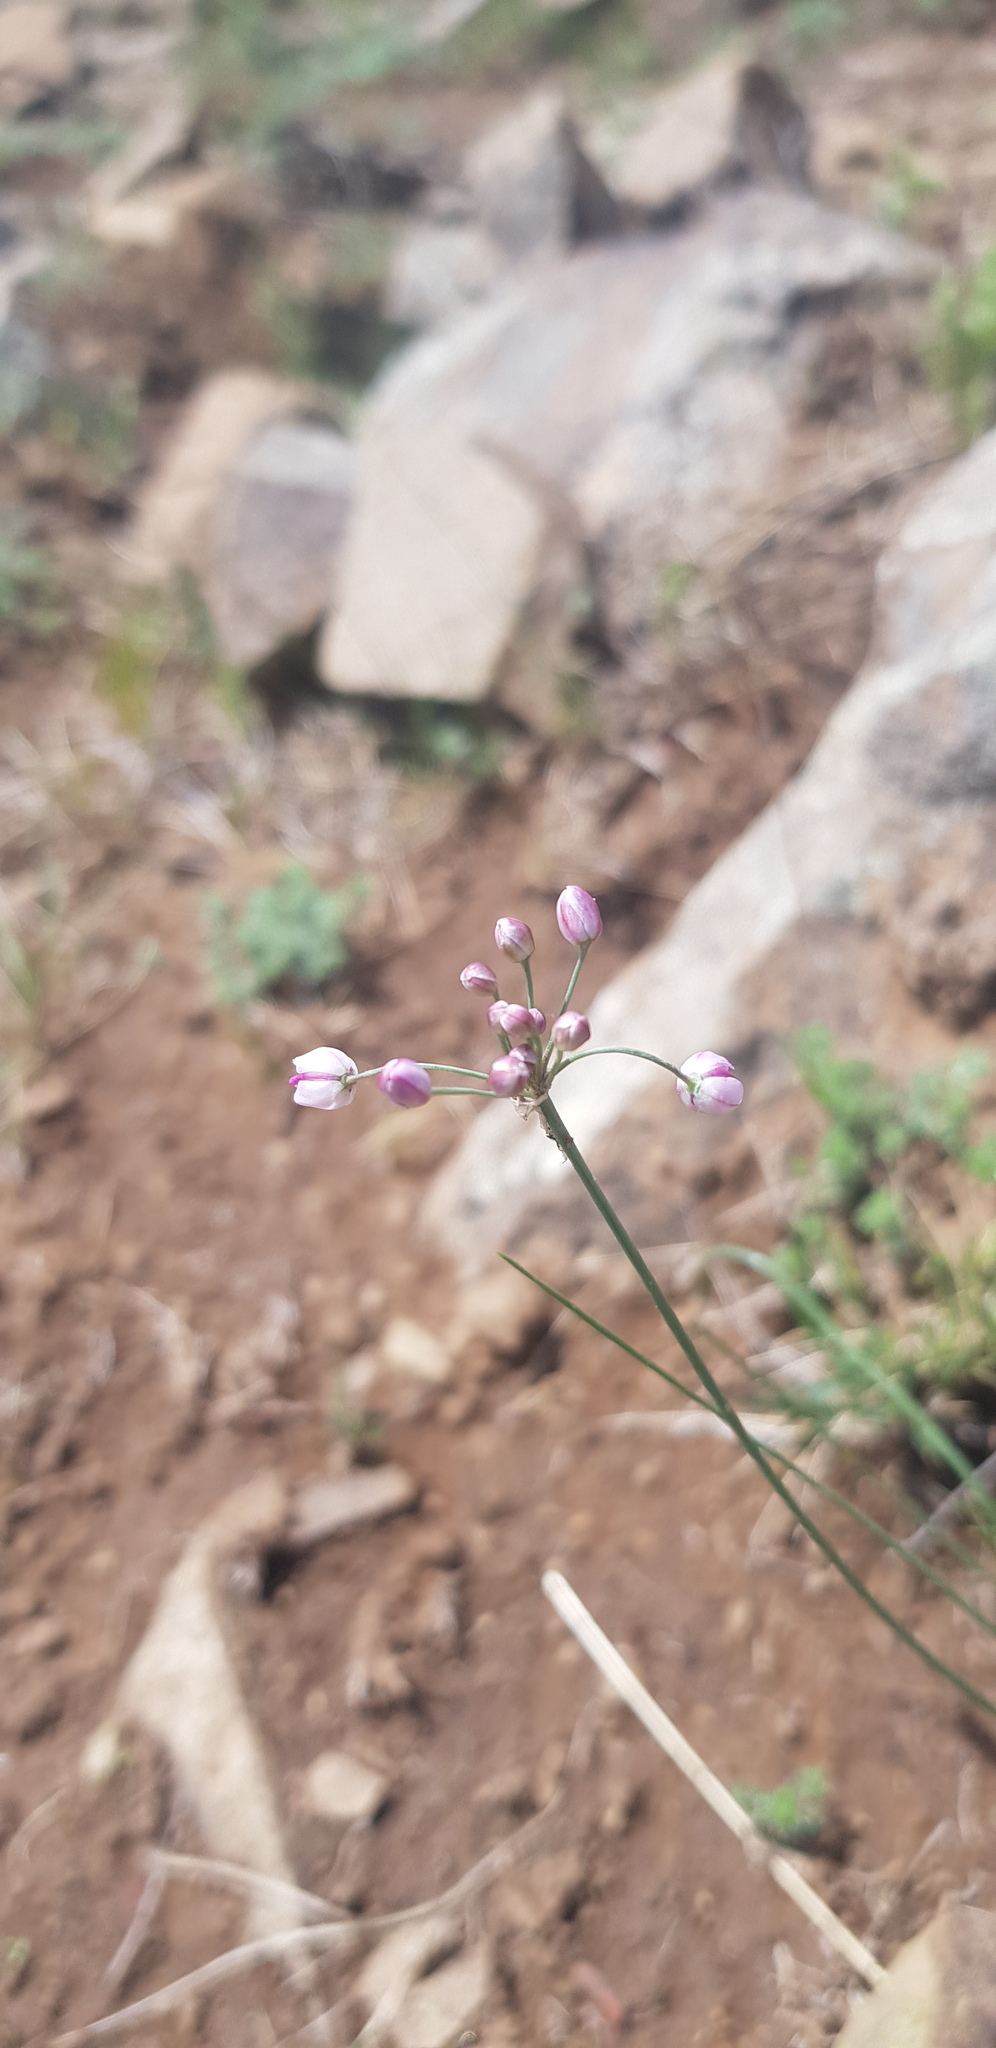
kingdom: Plantae
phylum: Tracheophyta
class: Liliopsida
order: Asparagales
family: Amaryllidaceae
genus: Allium
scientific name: Allium anisopodium
